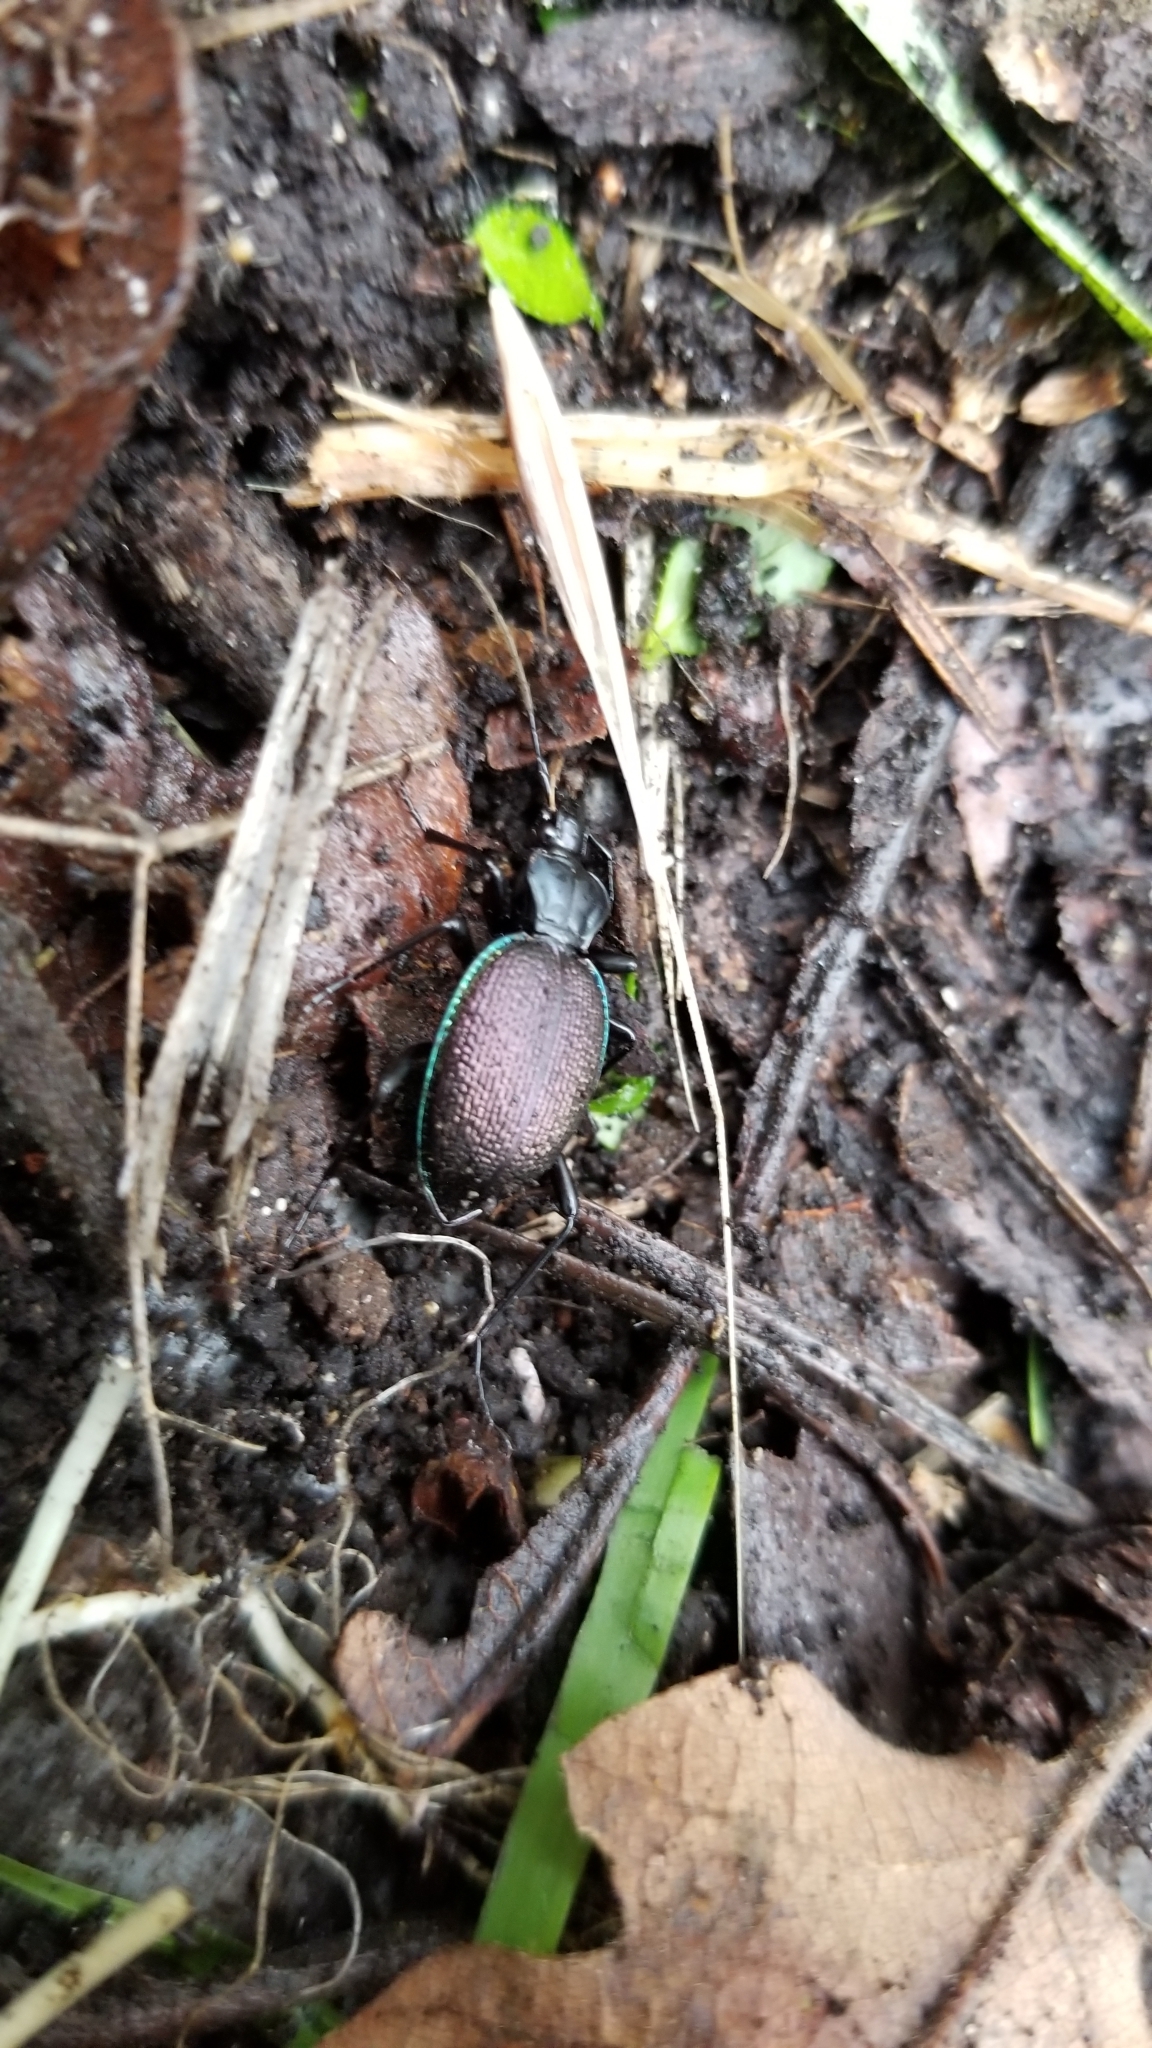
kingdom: Animalia
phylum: Arthropoda
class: Insecta
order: Coleoptera
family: Carabidae
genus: Scaphinotus
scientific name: Scaphinotus marginatus
